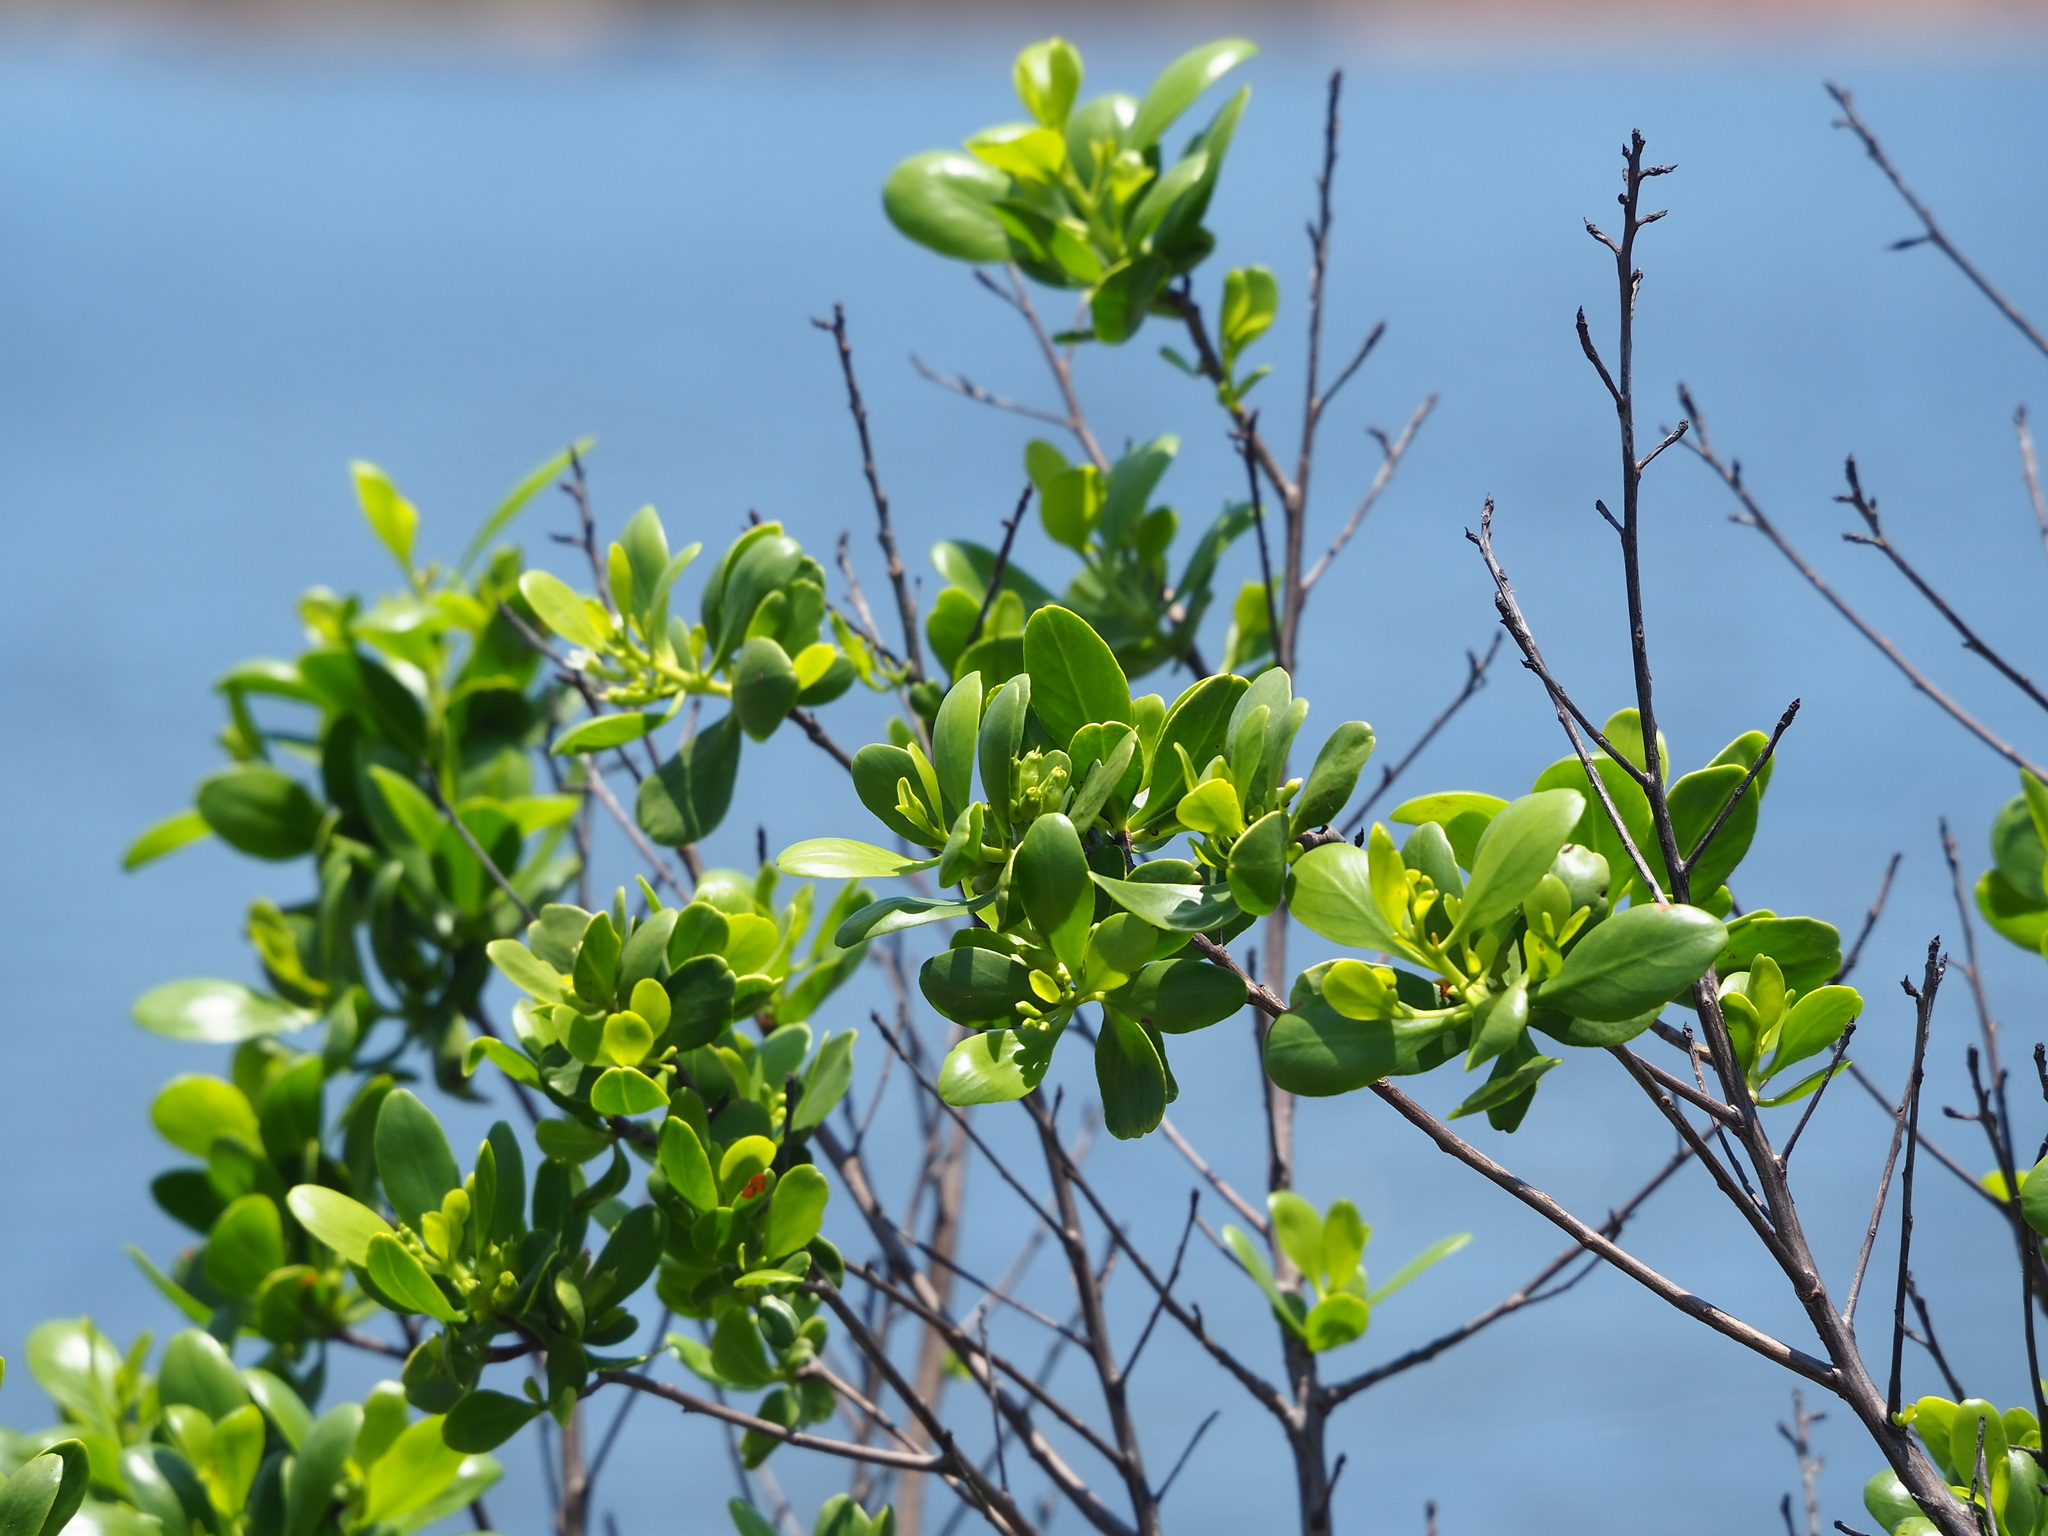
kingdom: Plantae
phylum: Tracheophyta
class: Magnoliopsida
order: Myrtales
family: Combretaceae
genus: Lumnitzera
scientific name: Lumnitzera racemosa
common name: White-flowered black mangrove
